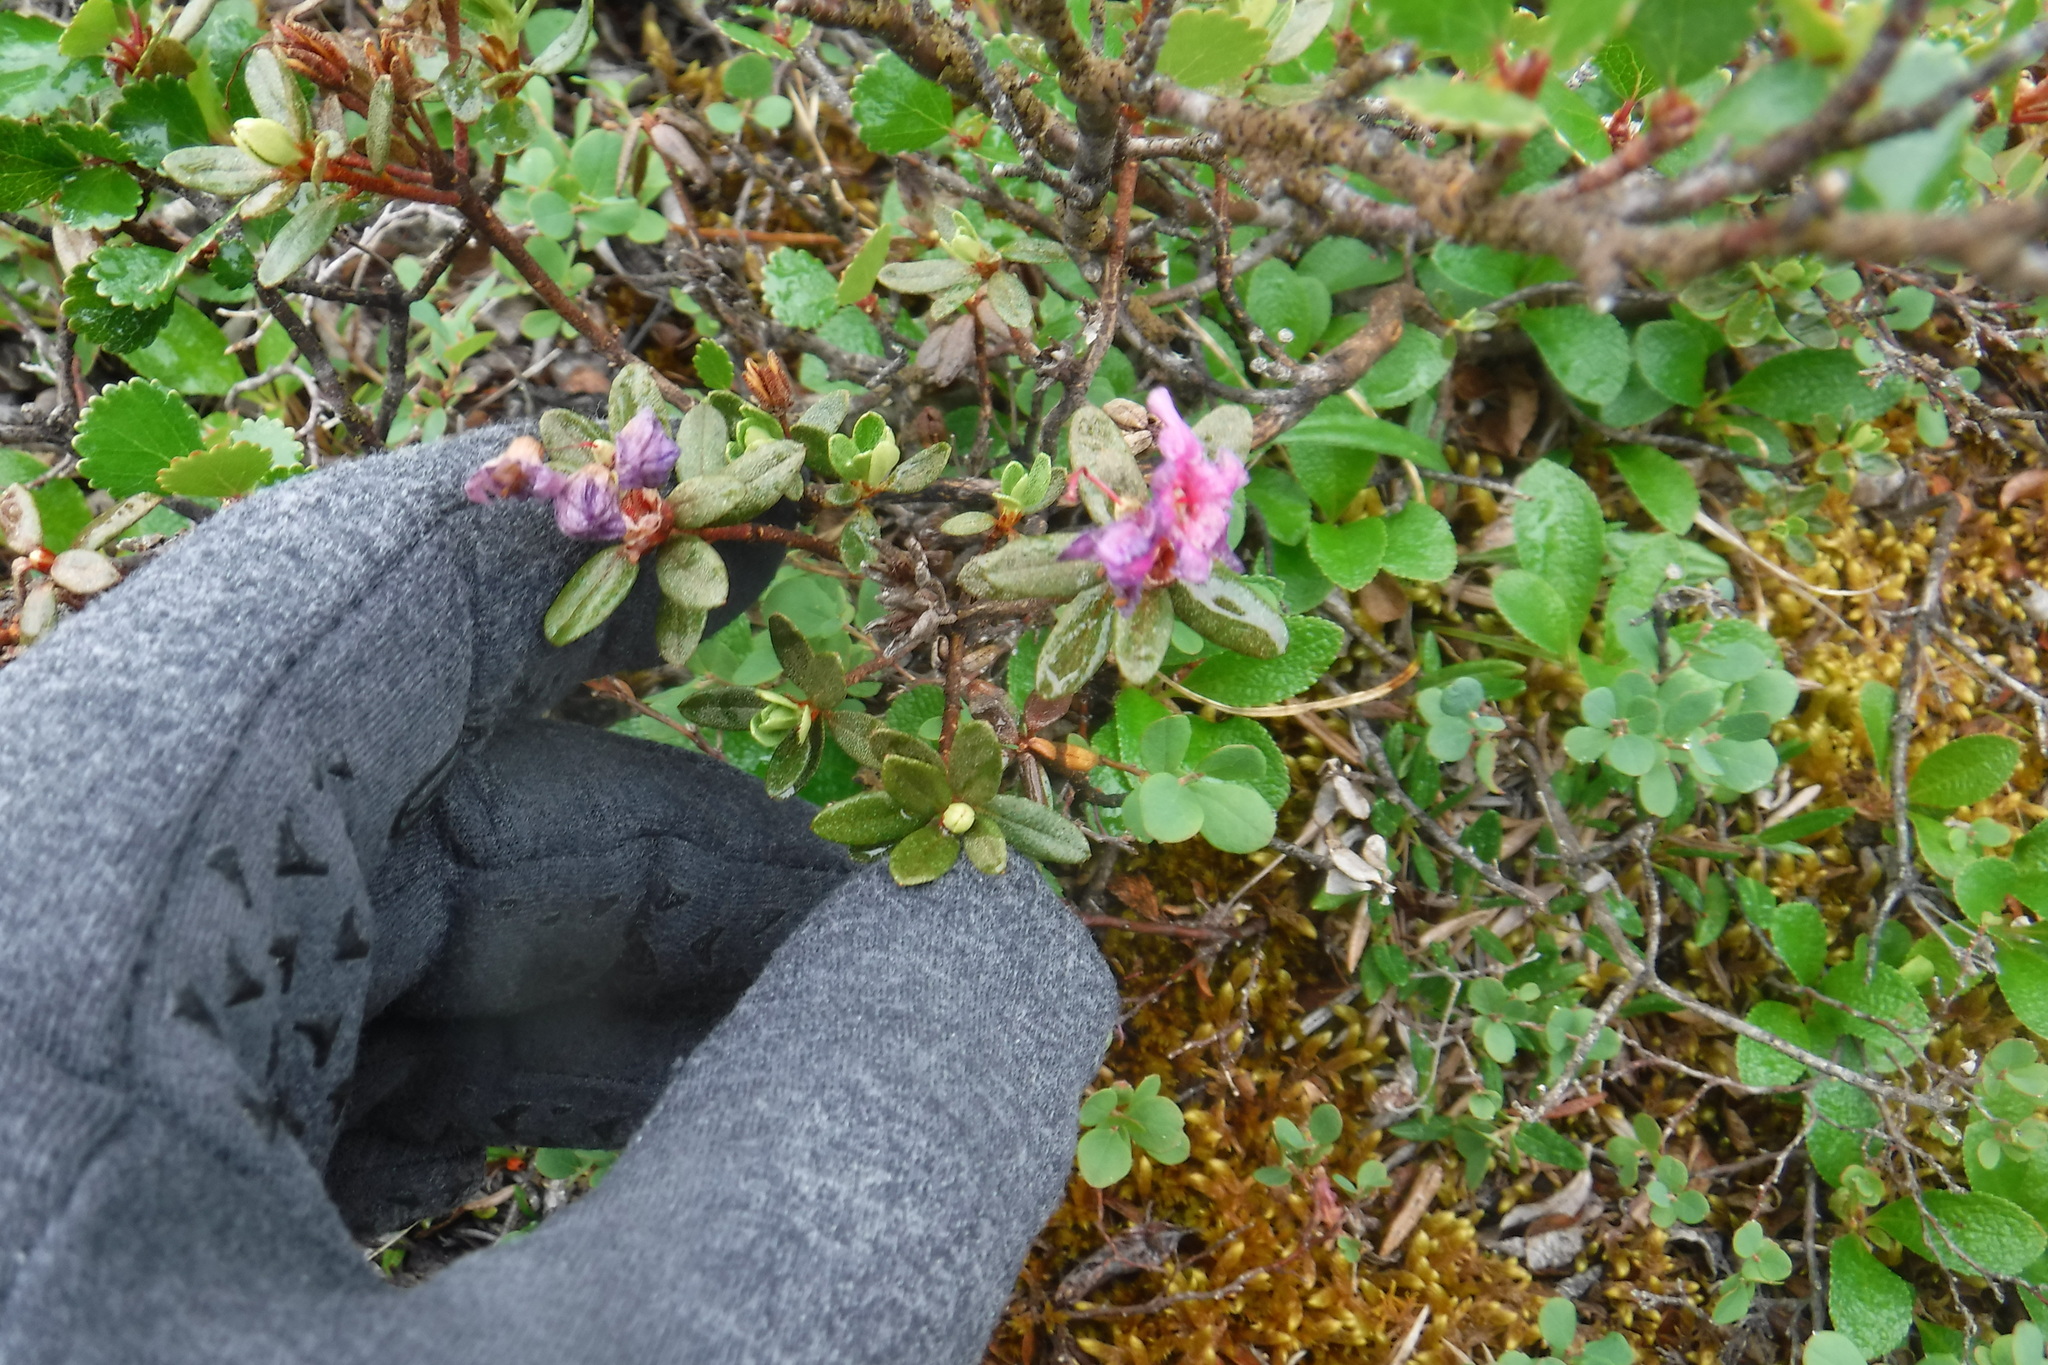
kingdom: Plantae
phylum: Tracheophyta
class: Magnoliopsida
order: Ericales
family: Ericaceae
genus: Rhododendron
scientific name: Rhododendron lapponicum
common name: Lapland rhododendron
